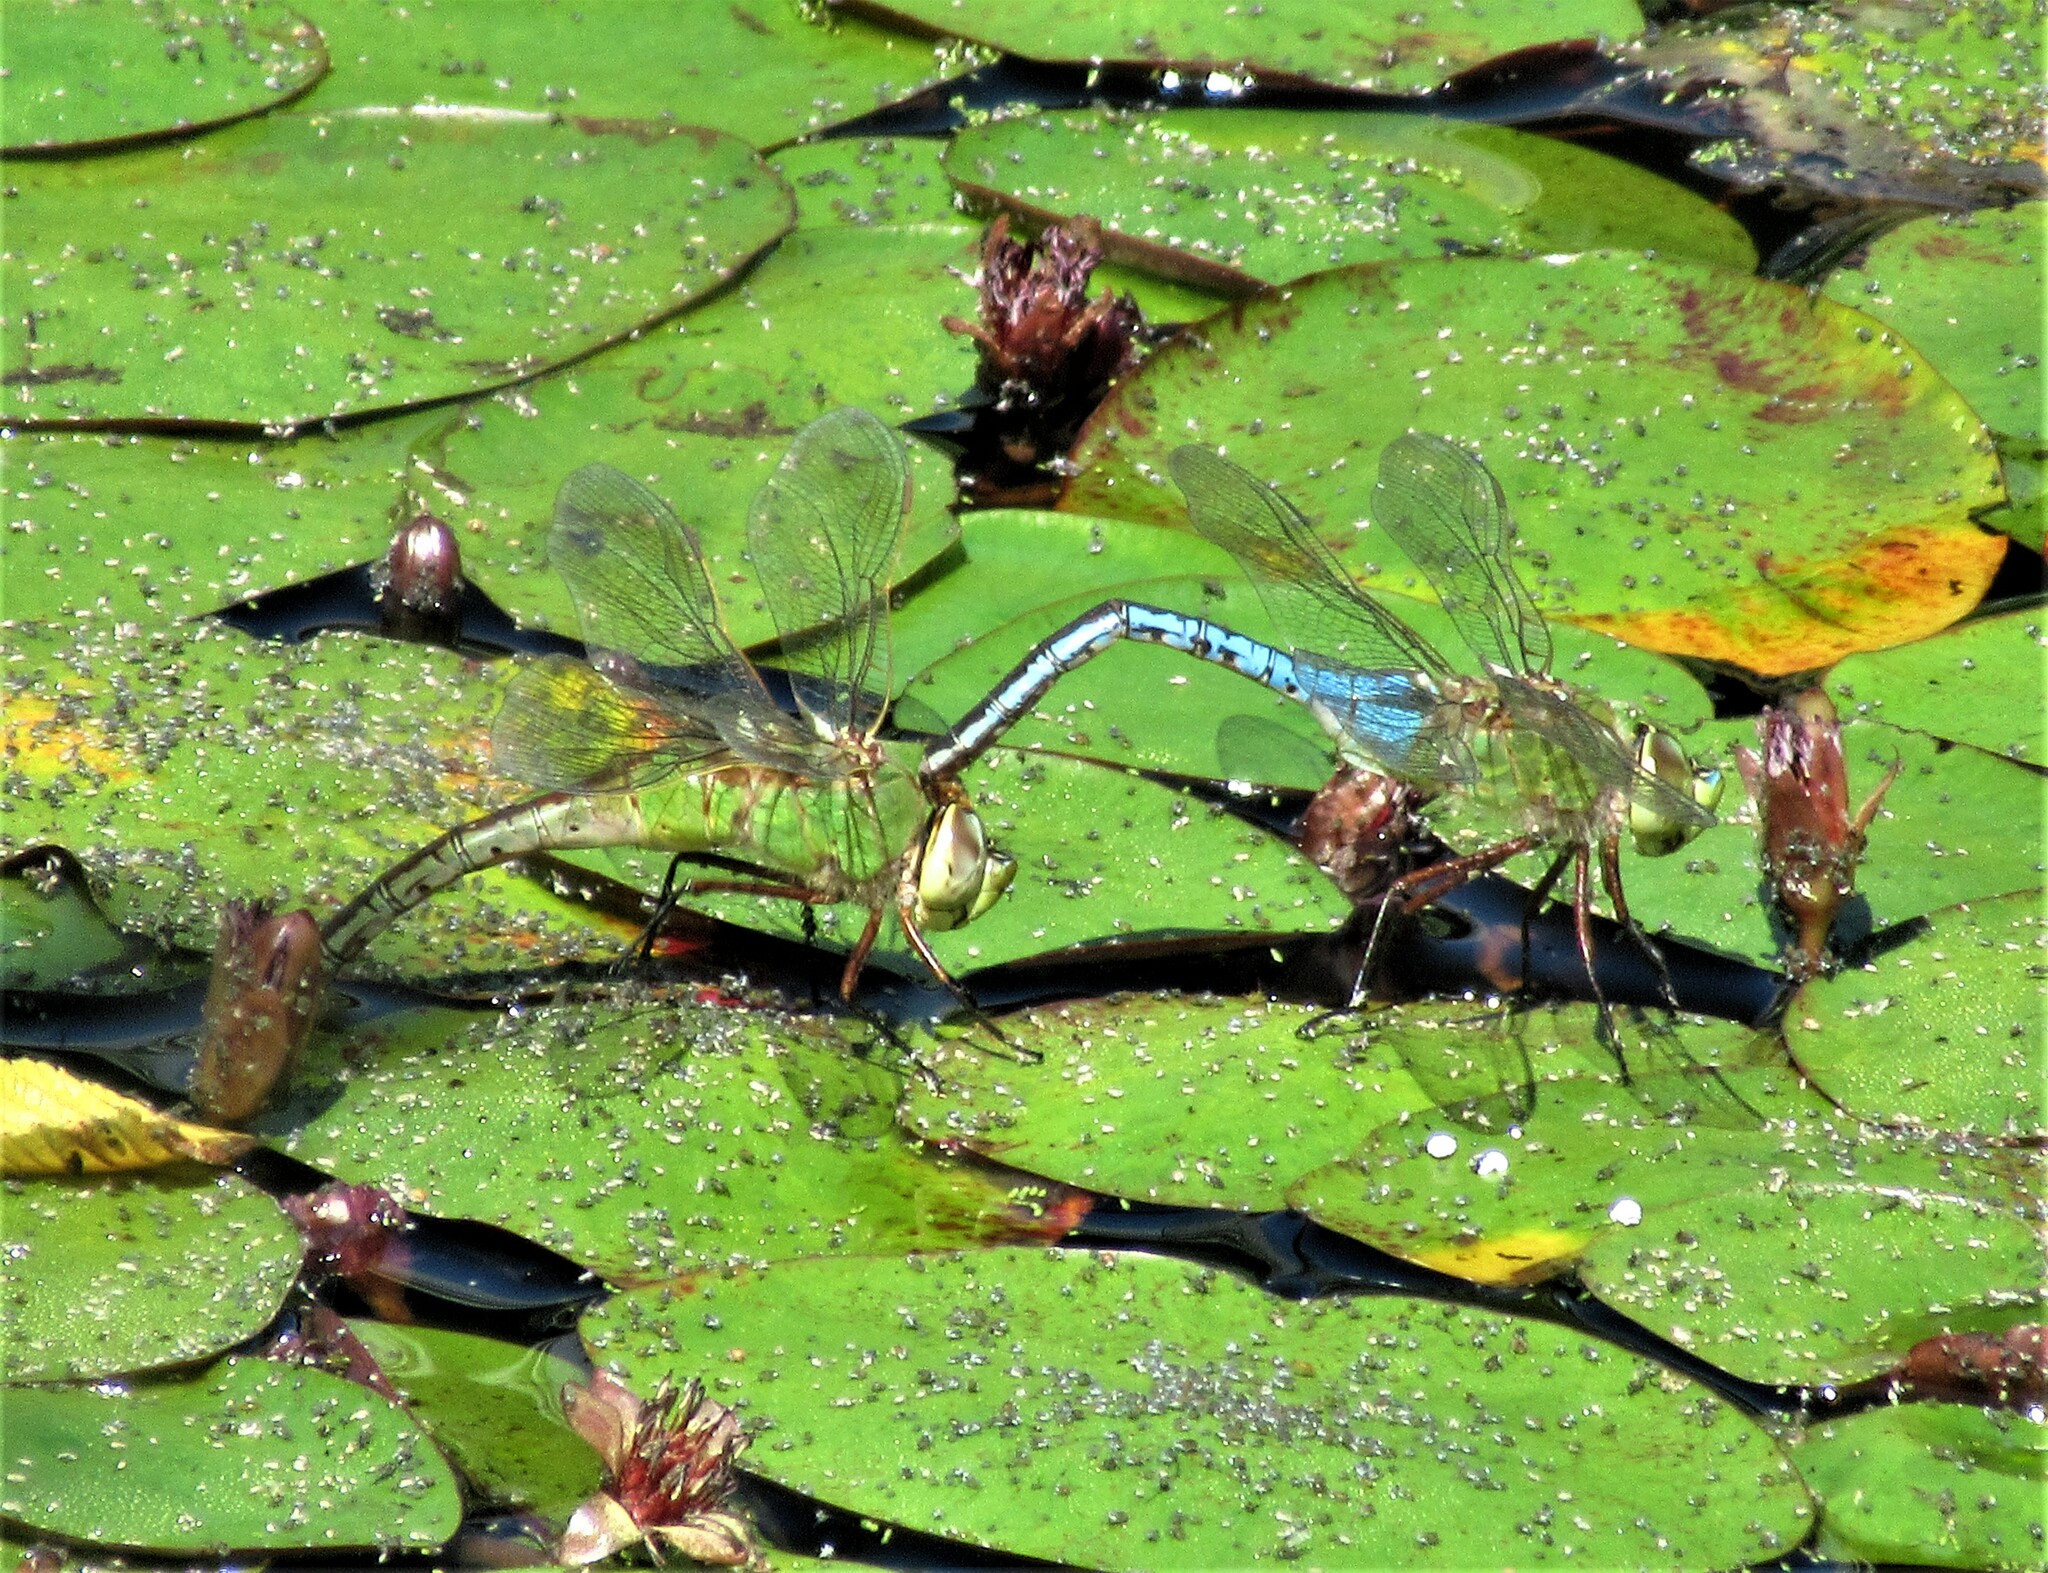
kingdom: Animalia
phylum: Arthropoda
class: Insecta
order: Odonata
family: Aeshnidae
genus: Anax
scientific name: Anax junius
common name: Common green darner
